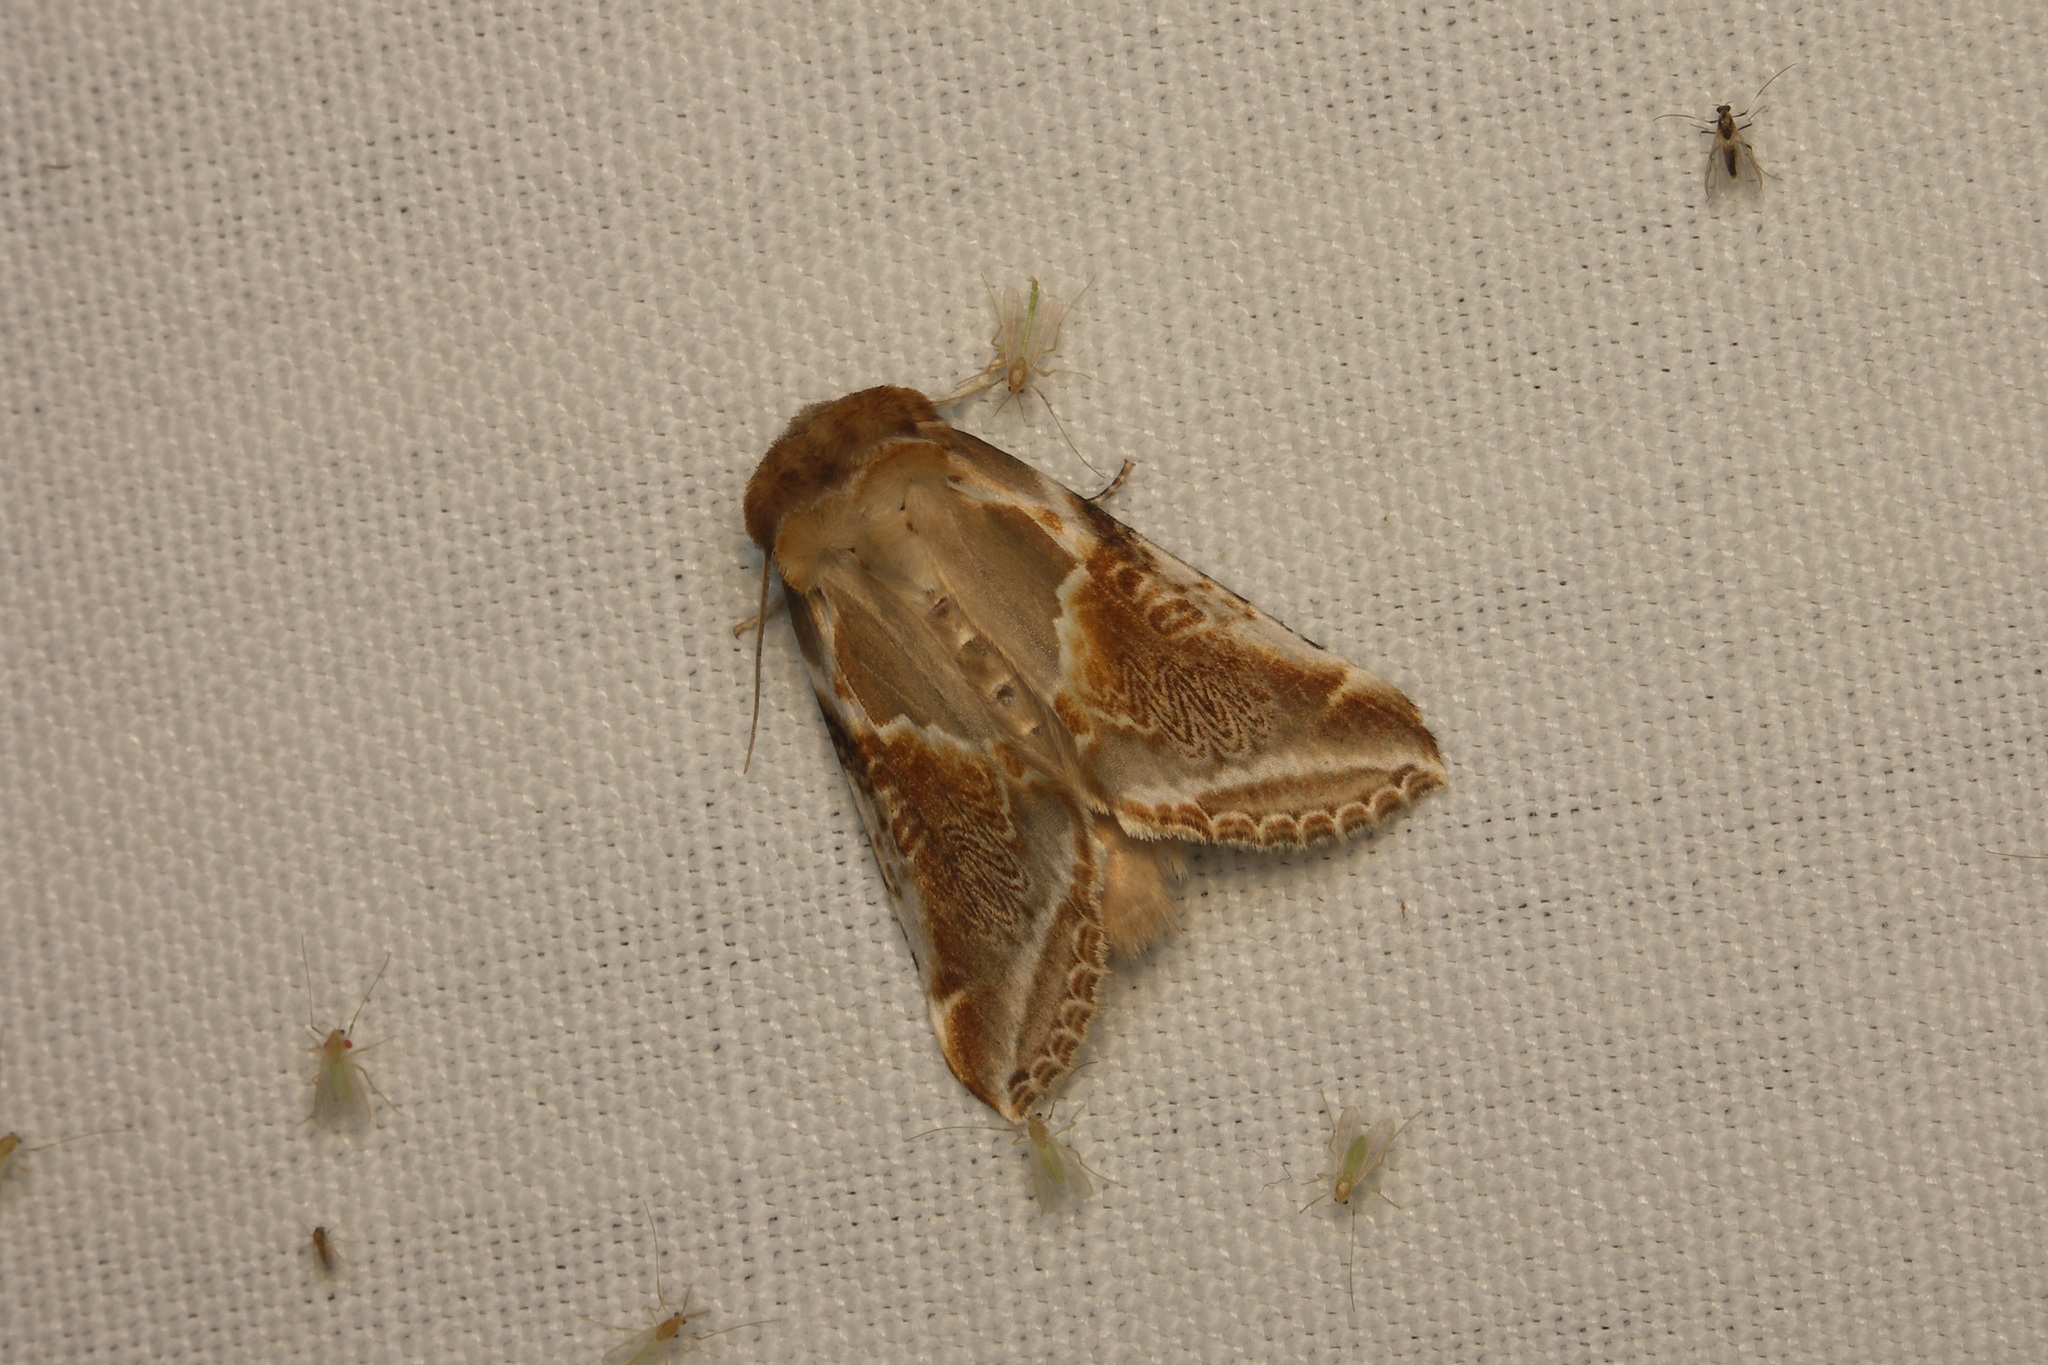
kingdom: Animalia
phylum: Arthropoda
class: Insecta
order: Lepidoptera
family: Drepanidae
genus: Habrosyne
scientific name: Habrosyne pyritoides
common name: Buff arches
